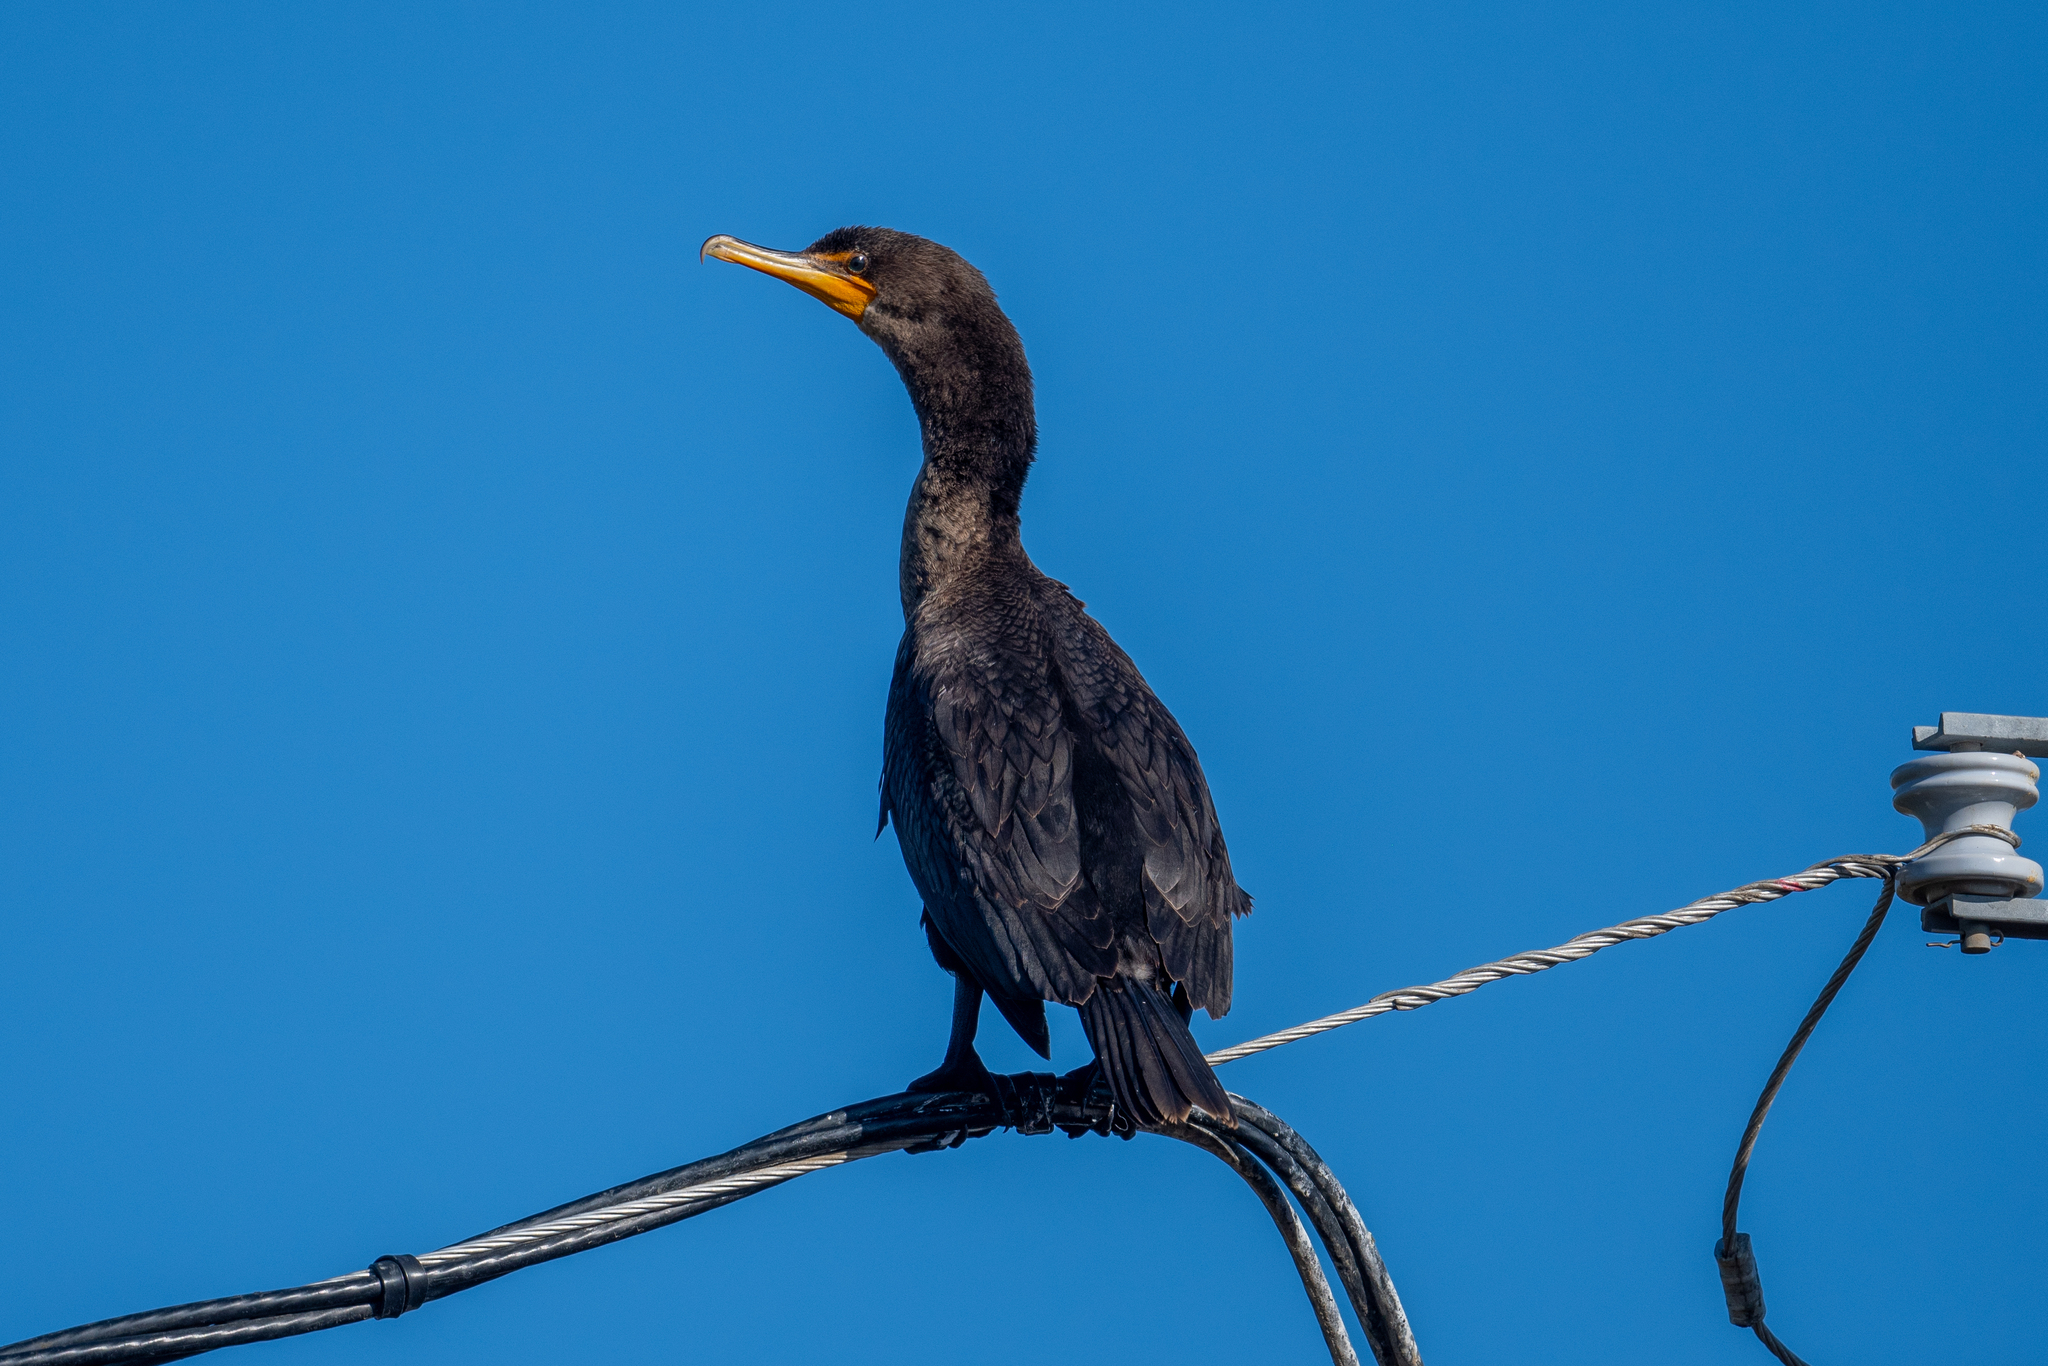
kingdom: Animalia
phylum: Chordata
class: Aves
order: Suliformes
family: Phalacrocoracidae
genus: Phalacrocorax
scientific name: Phalacrocorax auritus
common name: Double-crested cormorant
